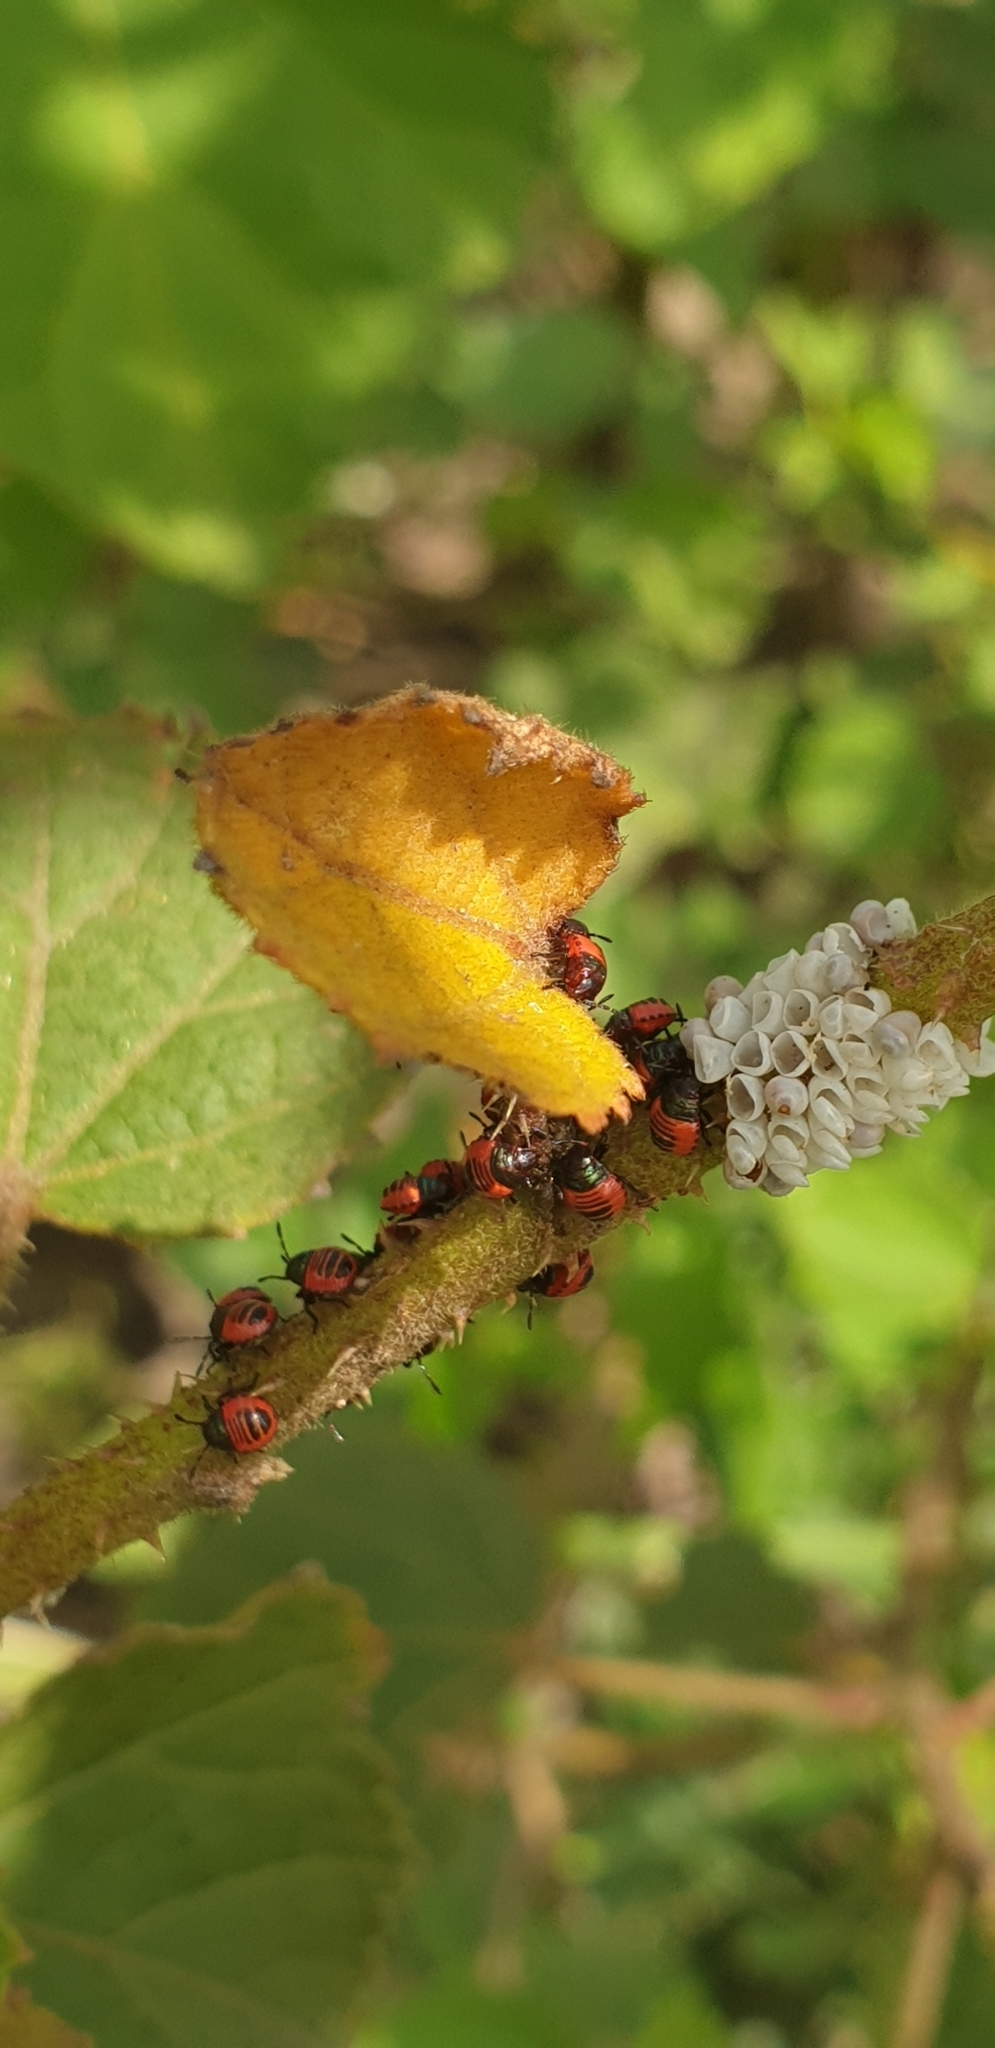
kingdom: Animalia
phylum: Arthropoda
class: Insecta
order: Hemiptera
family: Scutelleridae
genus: Tectocoris
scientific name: Tectocoris diophthalmus
